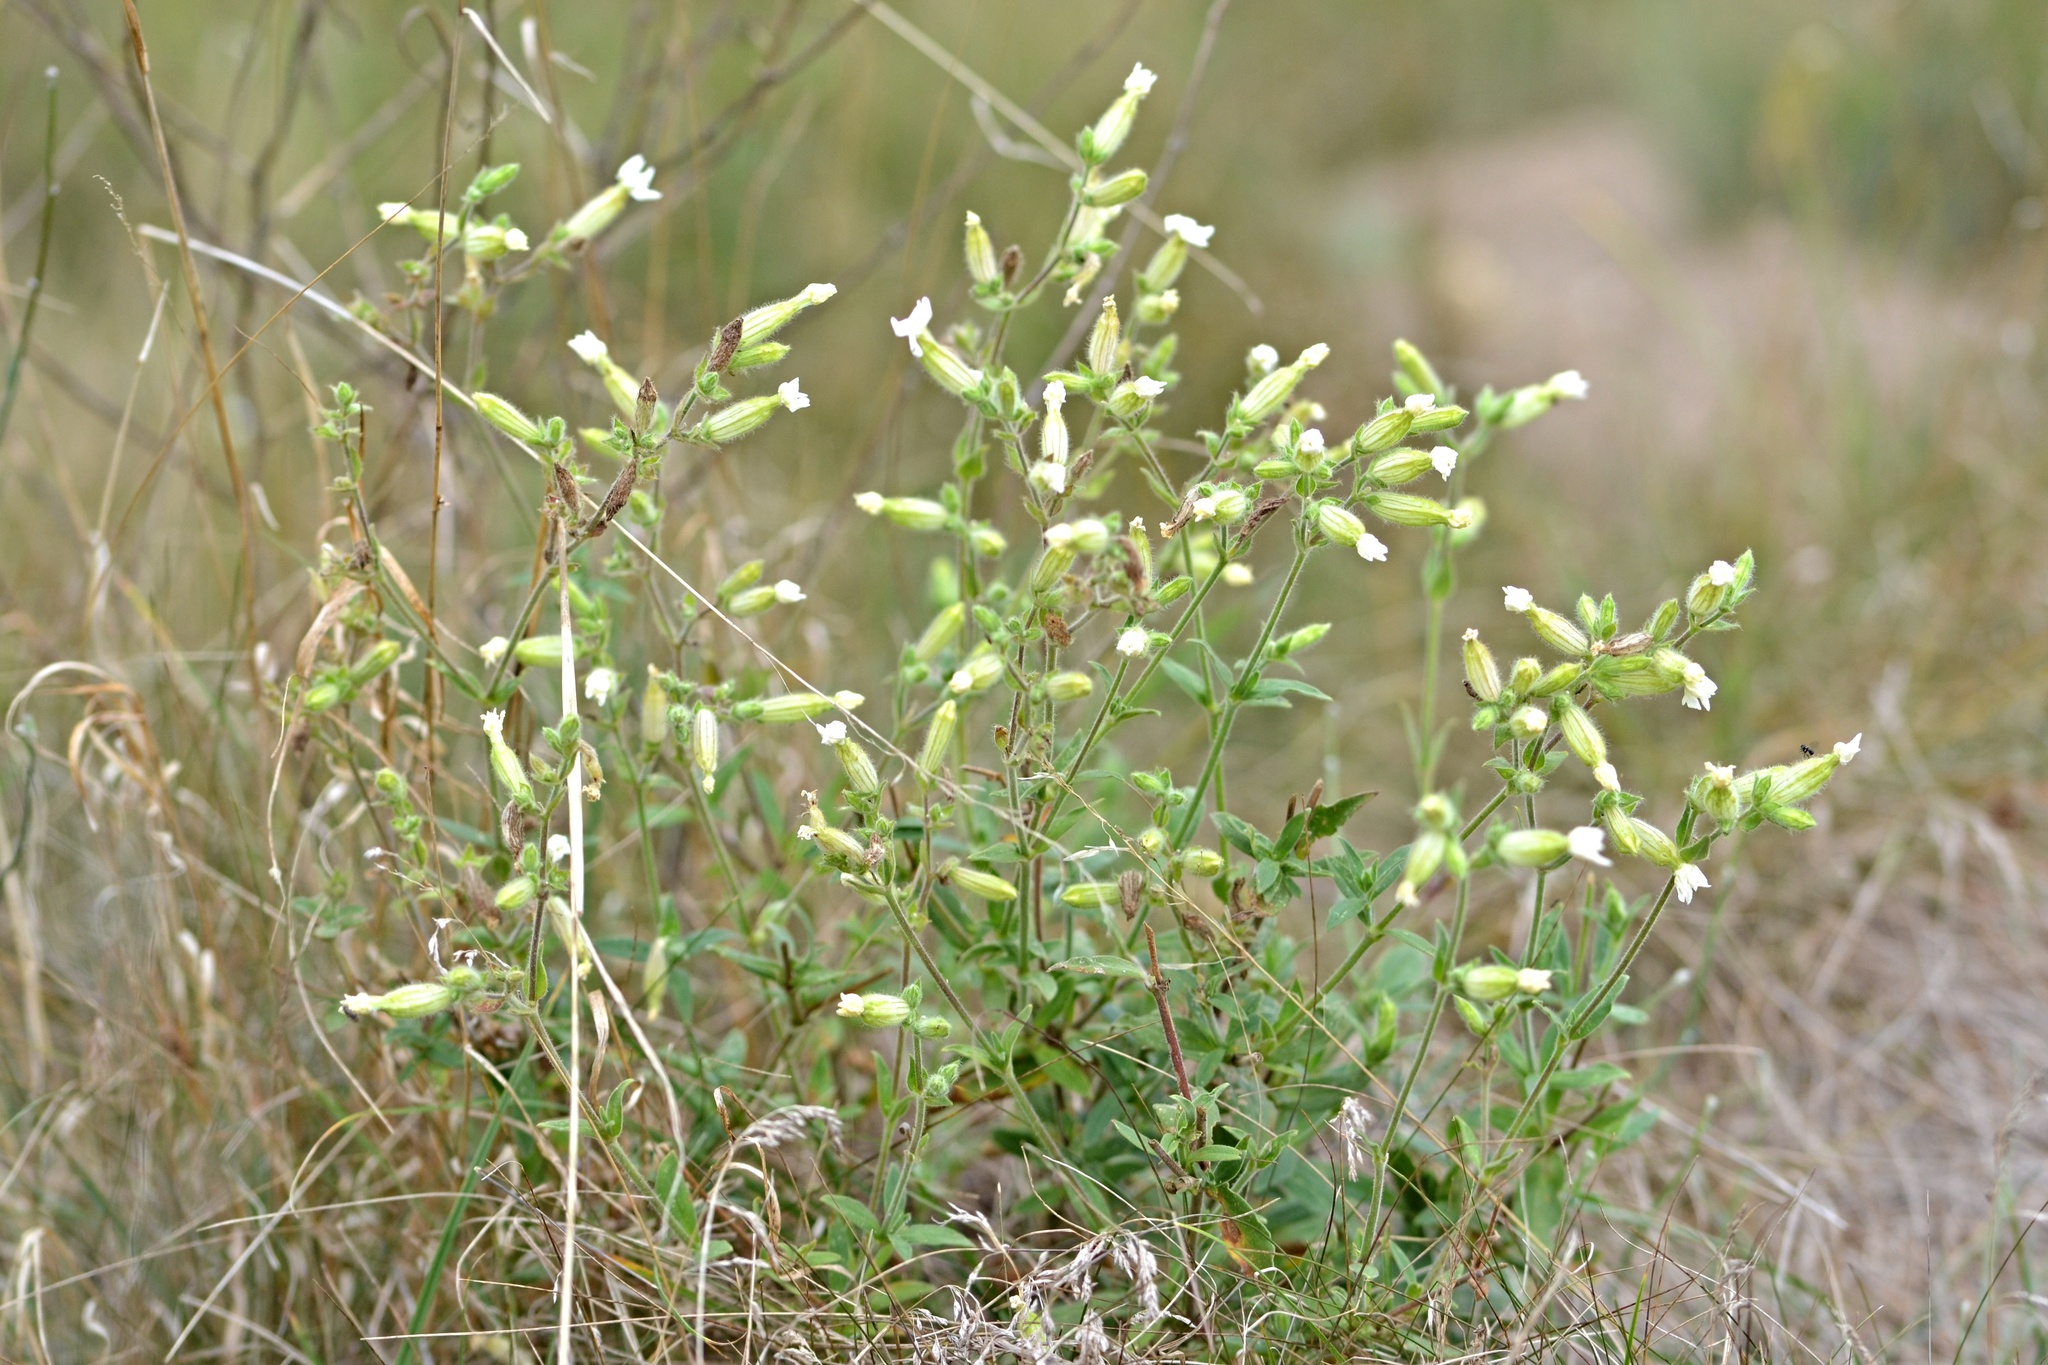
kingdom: Plantae
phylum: Tracheophyta
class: Magnoliopsida
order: Caryophyllales
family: Caryophyllaceae
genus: Silene
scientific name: Silene latifolia
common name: White campion
